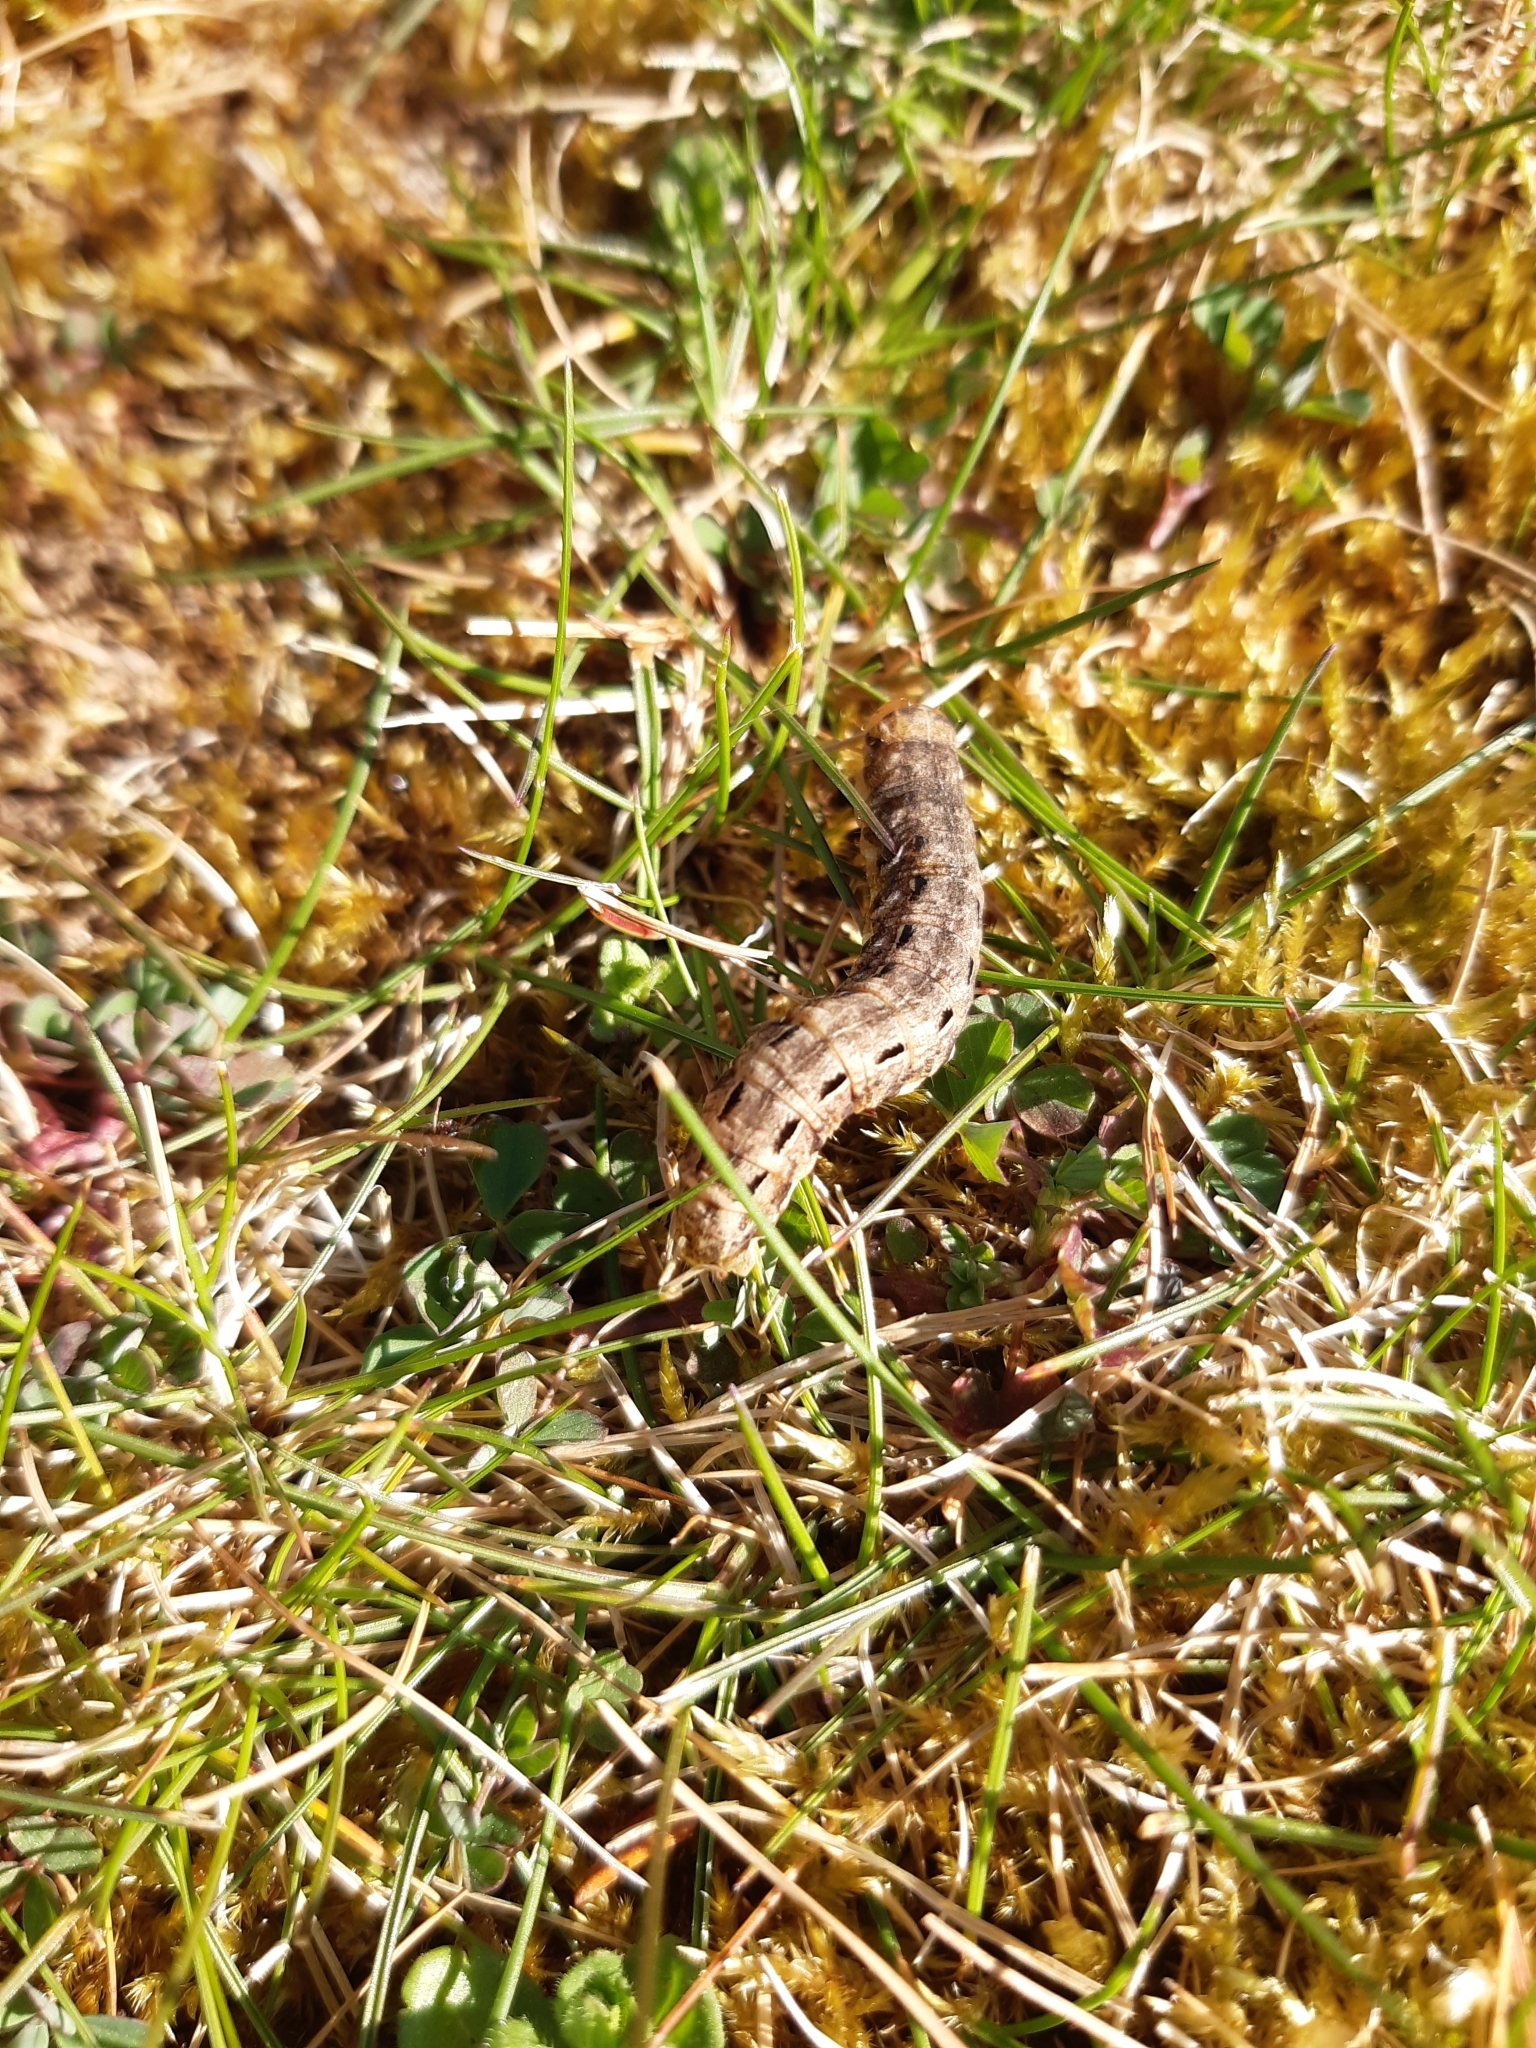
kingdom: Animalia
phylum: Arthropoda
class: Insecta
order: Lepidoptera
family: Noctuidae
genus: Noctua
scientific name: Noctua pronuba
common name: Large yellow underwing
